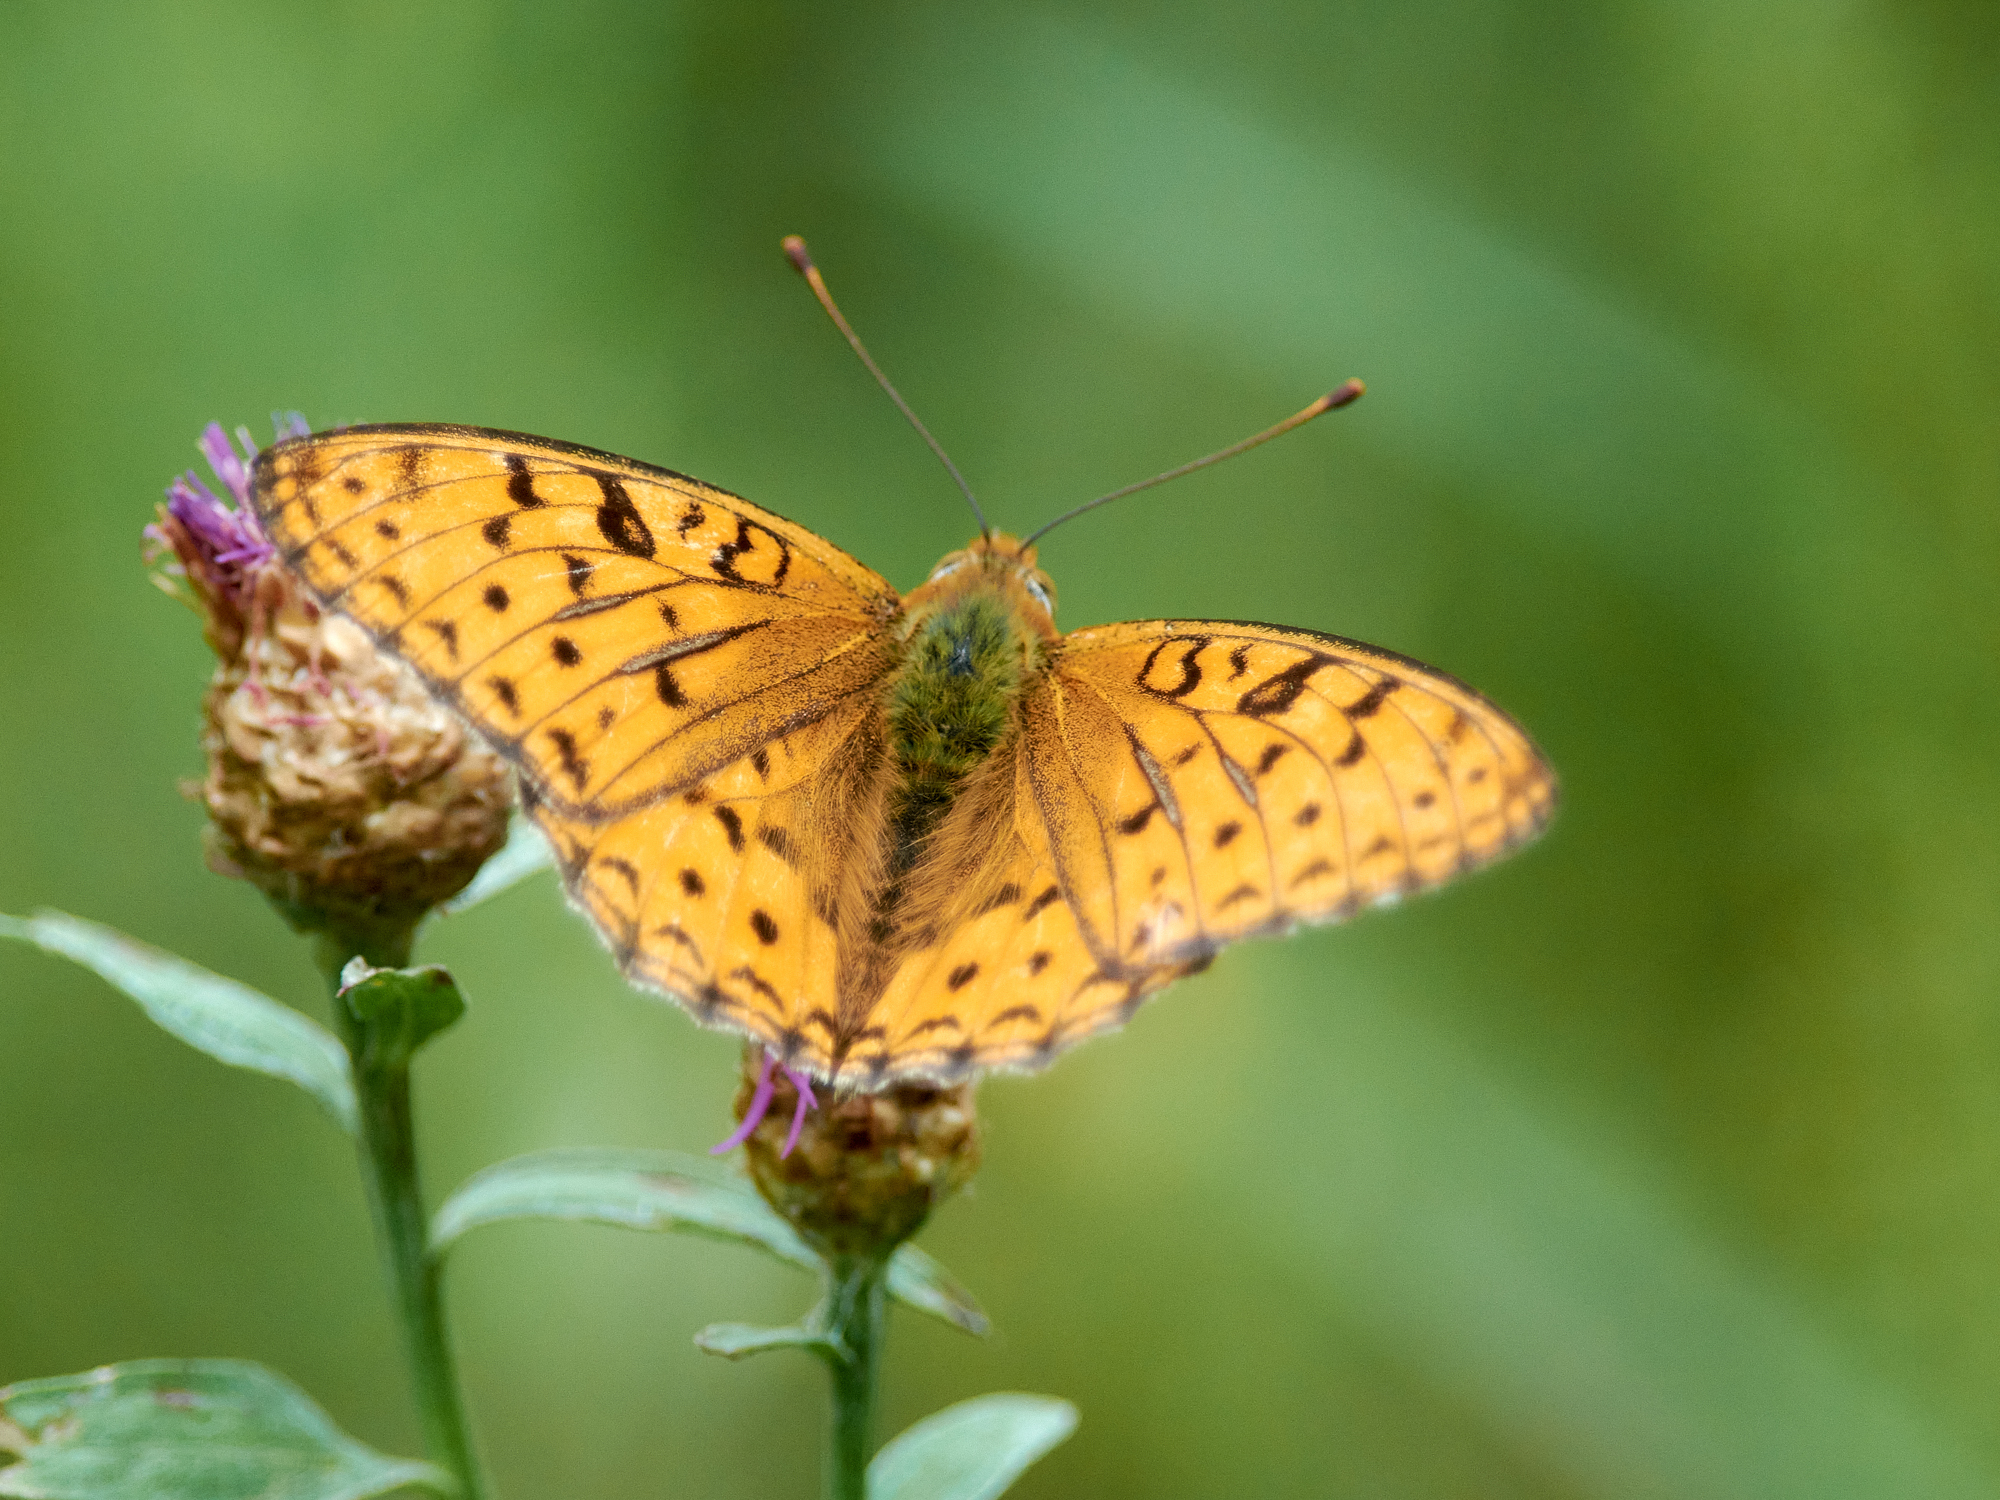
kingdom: Animalia
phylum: Arthropoda
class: Insecta
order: Lepidoptera
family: Nymphalidae
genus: Fabriciana
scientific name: Fabriciana adippe
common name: High brown fritillary
